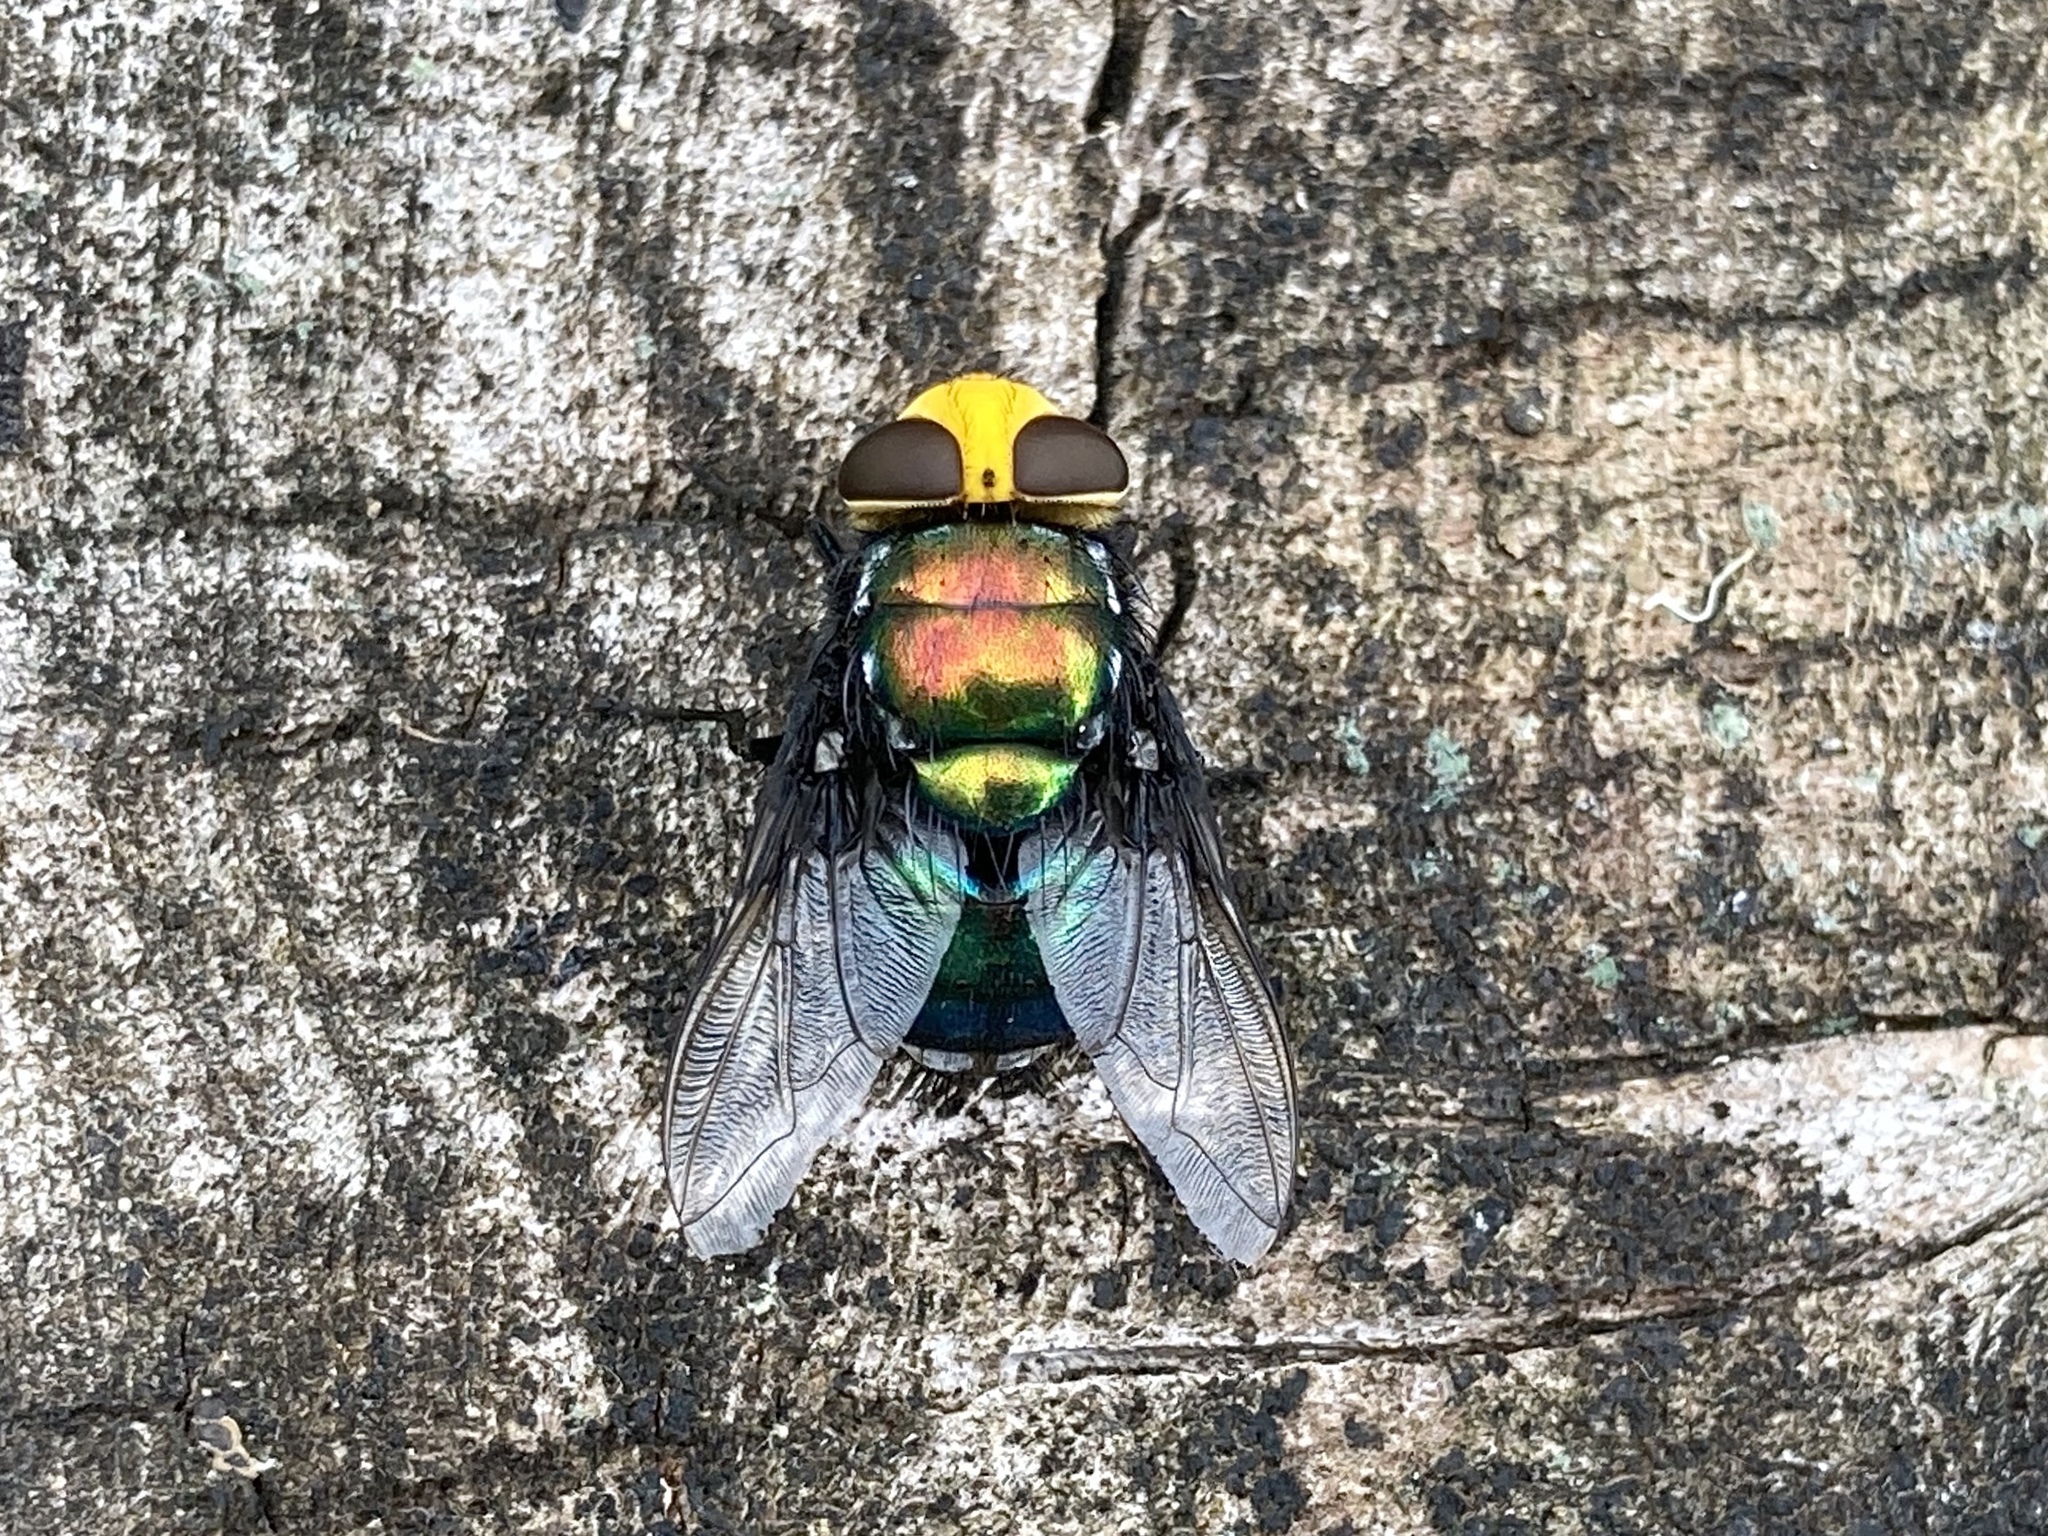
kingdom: Animalia
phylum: Arthropoda
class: Insecta
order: Diptera
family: Calliphoridae
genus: Amenia
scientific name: Amenia imperialis
